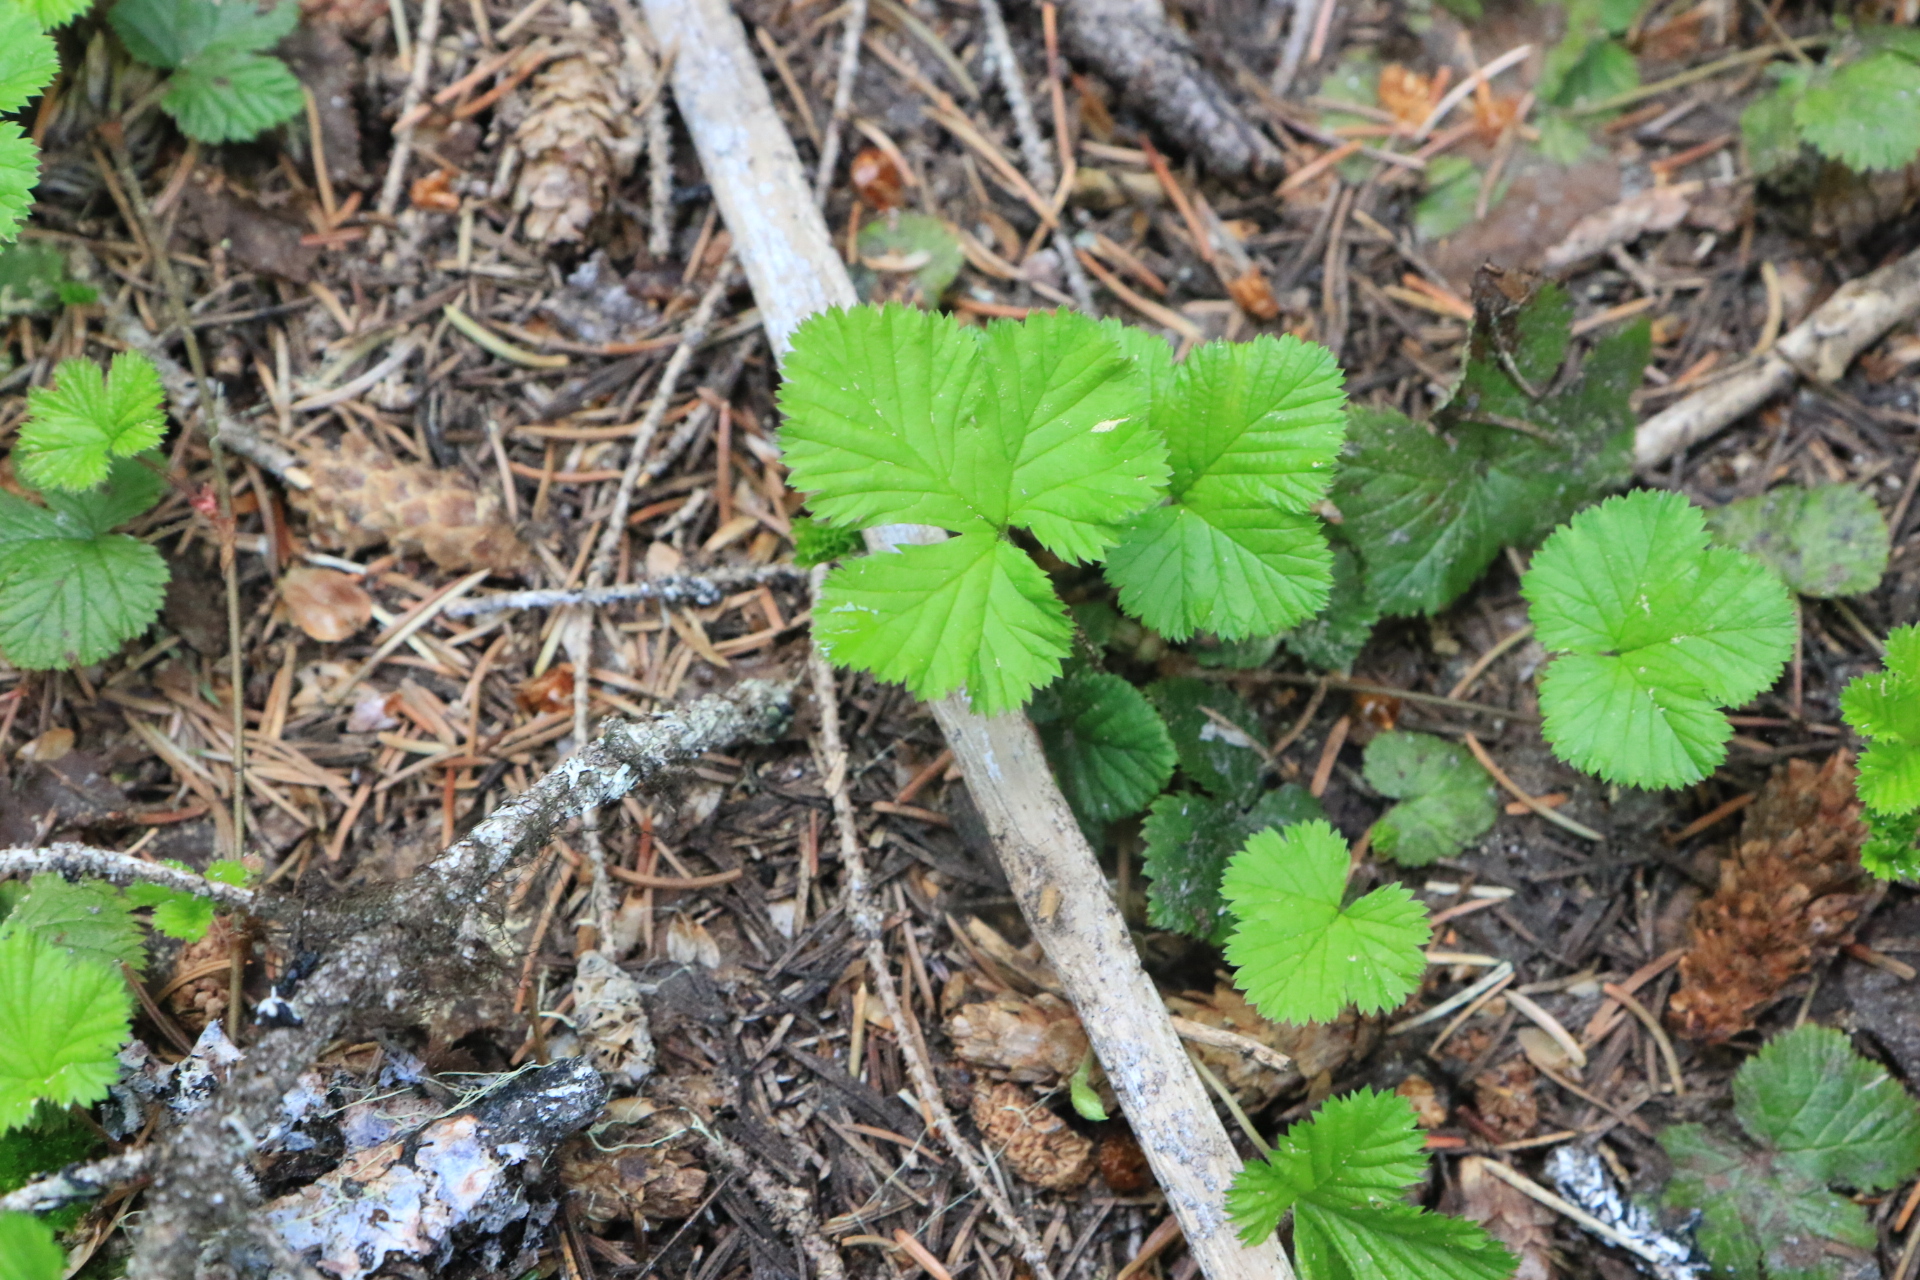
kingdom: Plantae
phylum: Tracheophyta
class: Magnoliopsida
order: Rosales
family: Rosaceae
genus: Rubus
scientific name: Rubus lasiococcus
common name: Dwarf bramble
